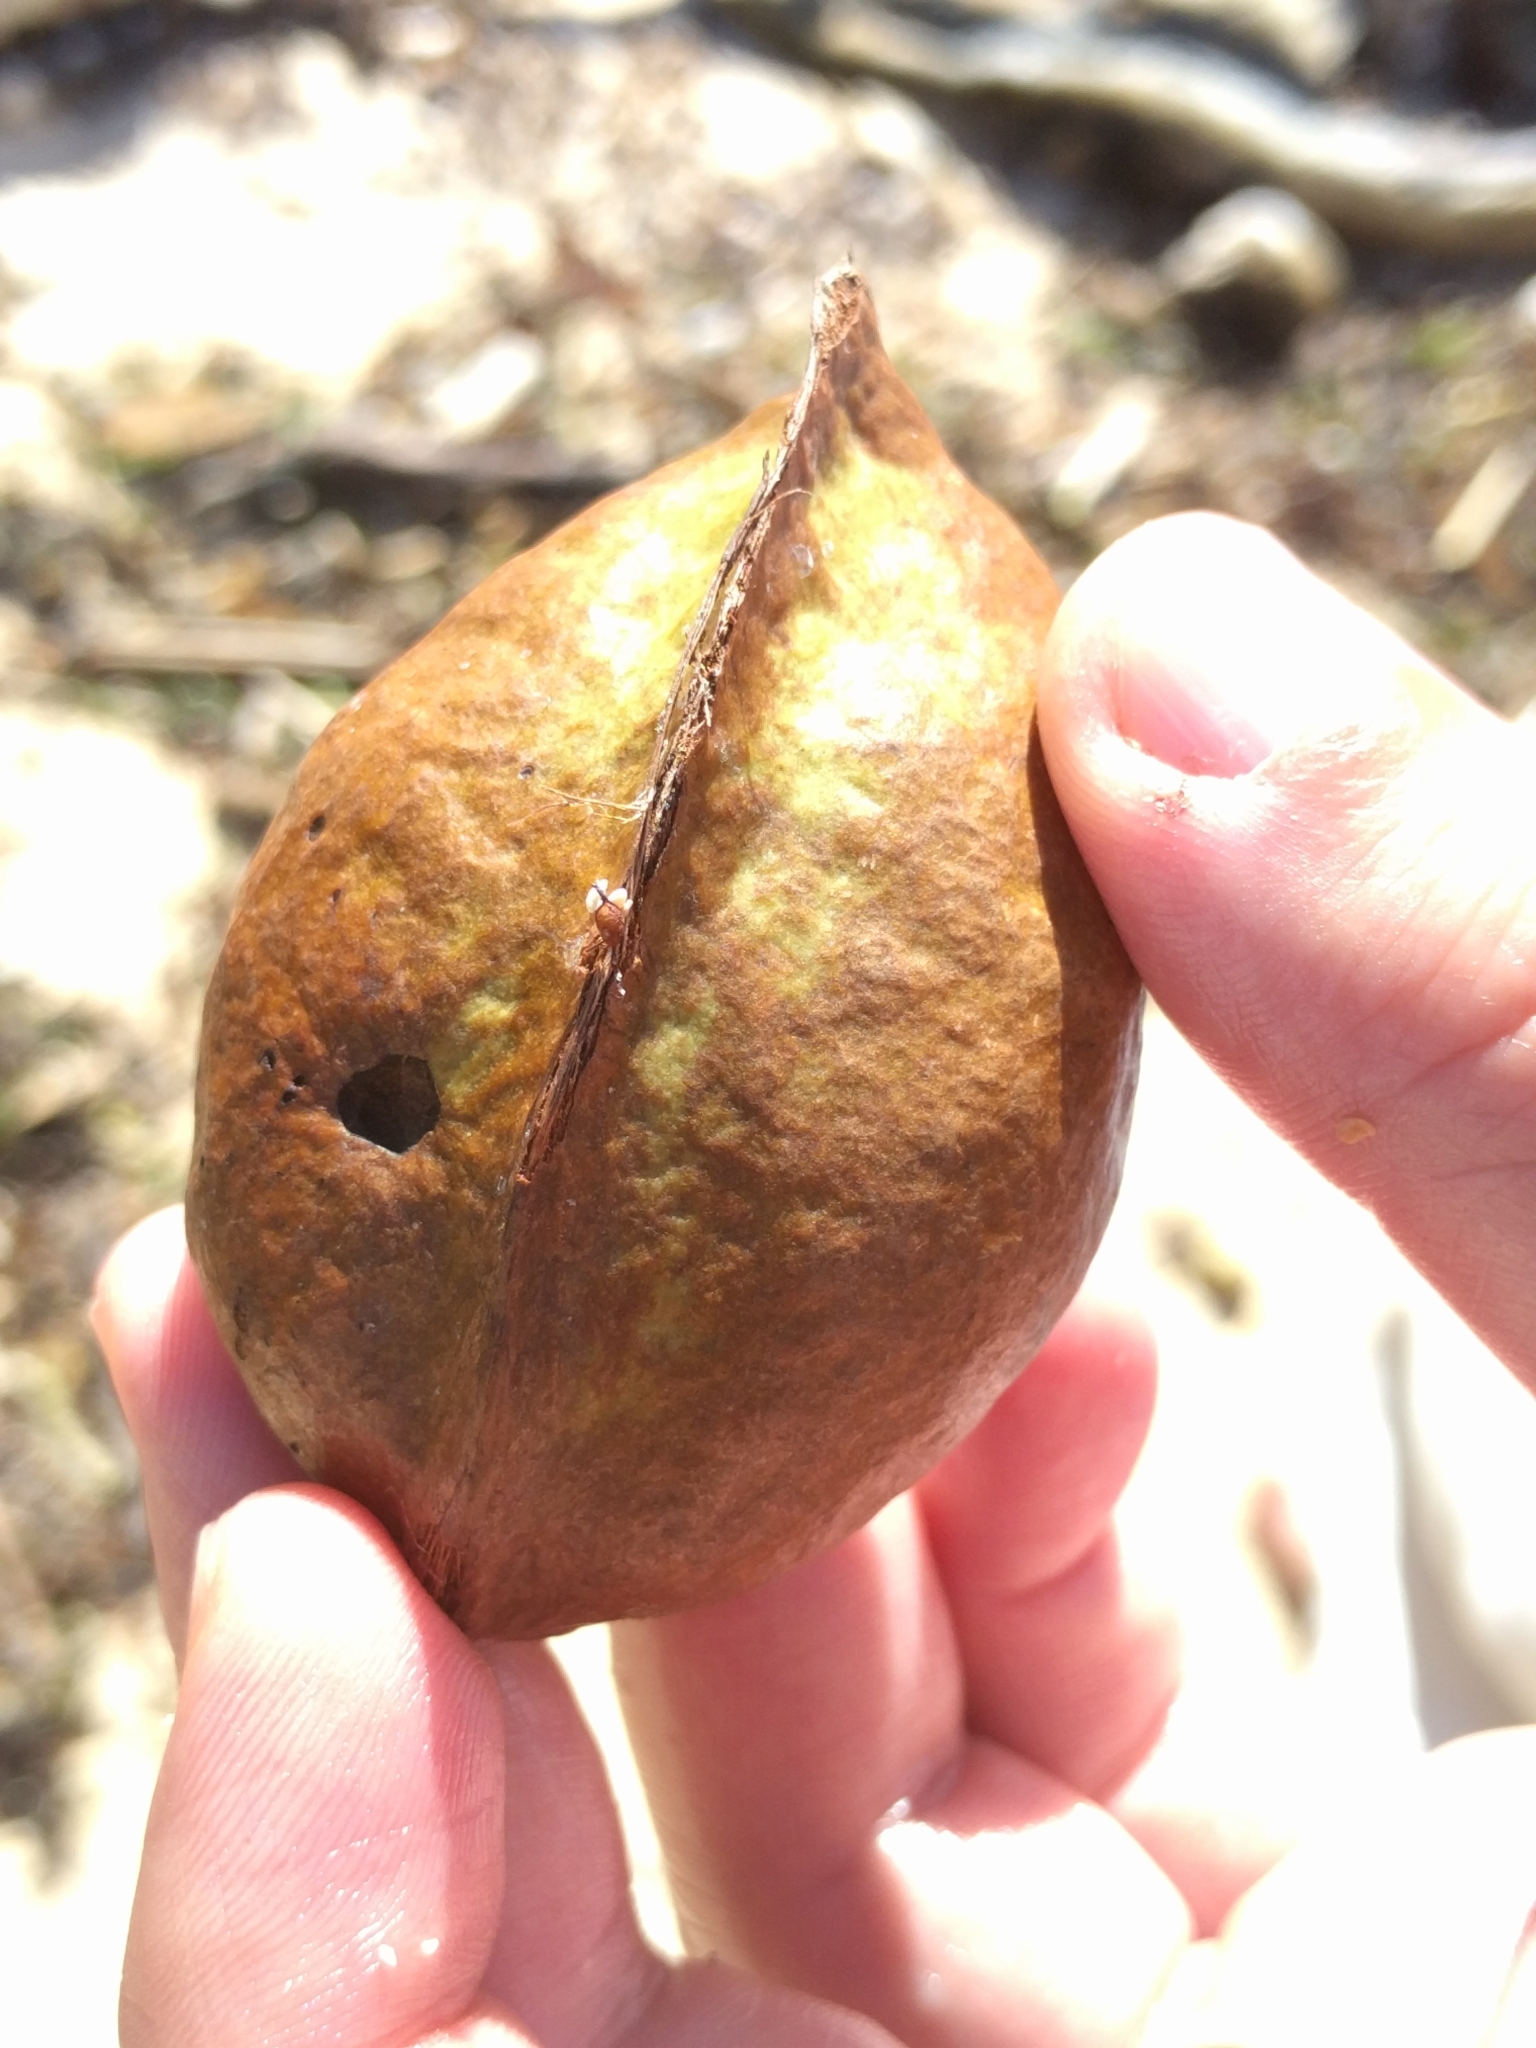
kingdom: Plantae
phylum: Tracheophyta
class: Magnoliopsida
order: Malvales
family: Malvaceae
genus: Heritiera
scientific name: Heritiera littoralis
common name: Looking-glass mangrove
